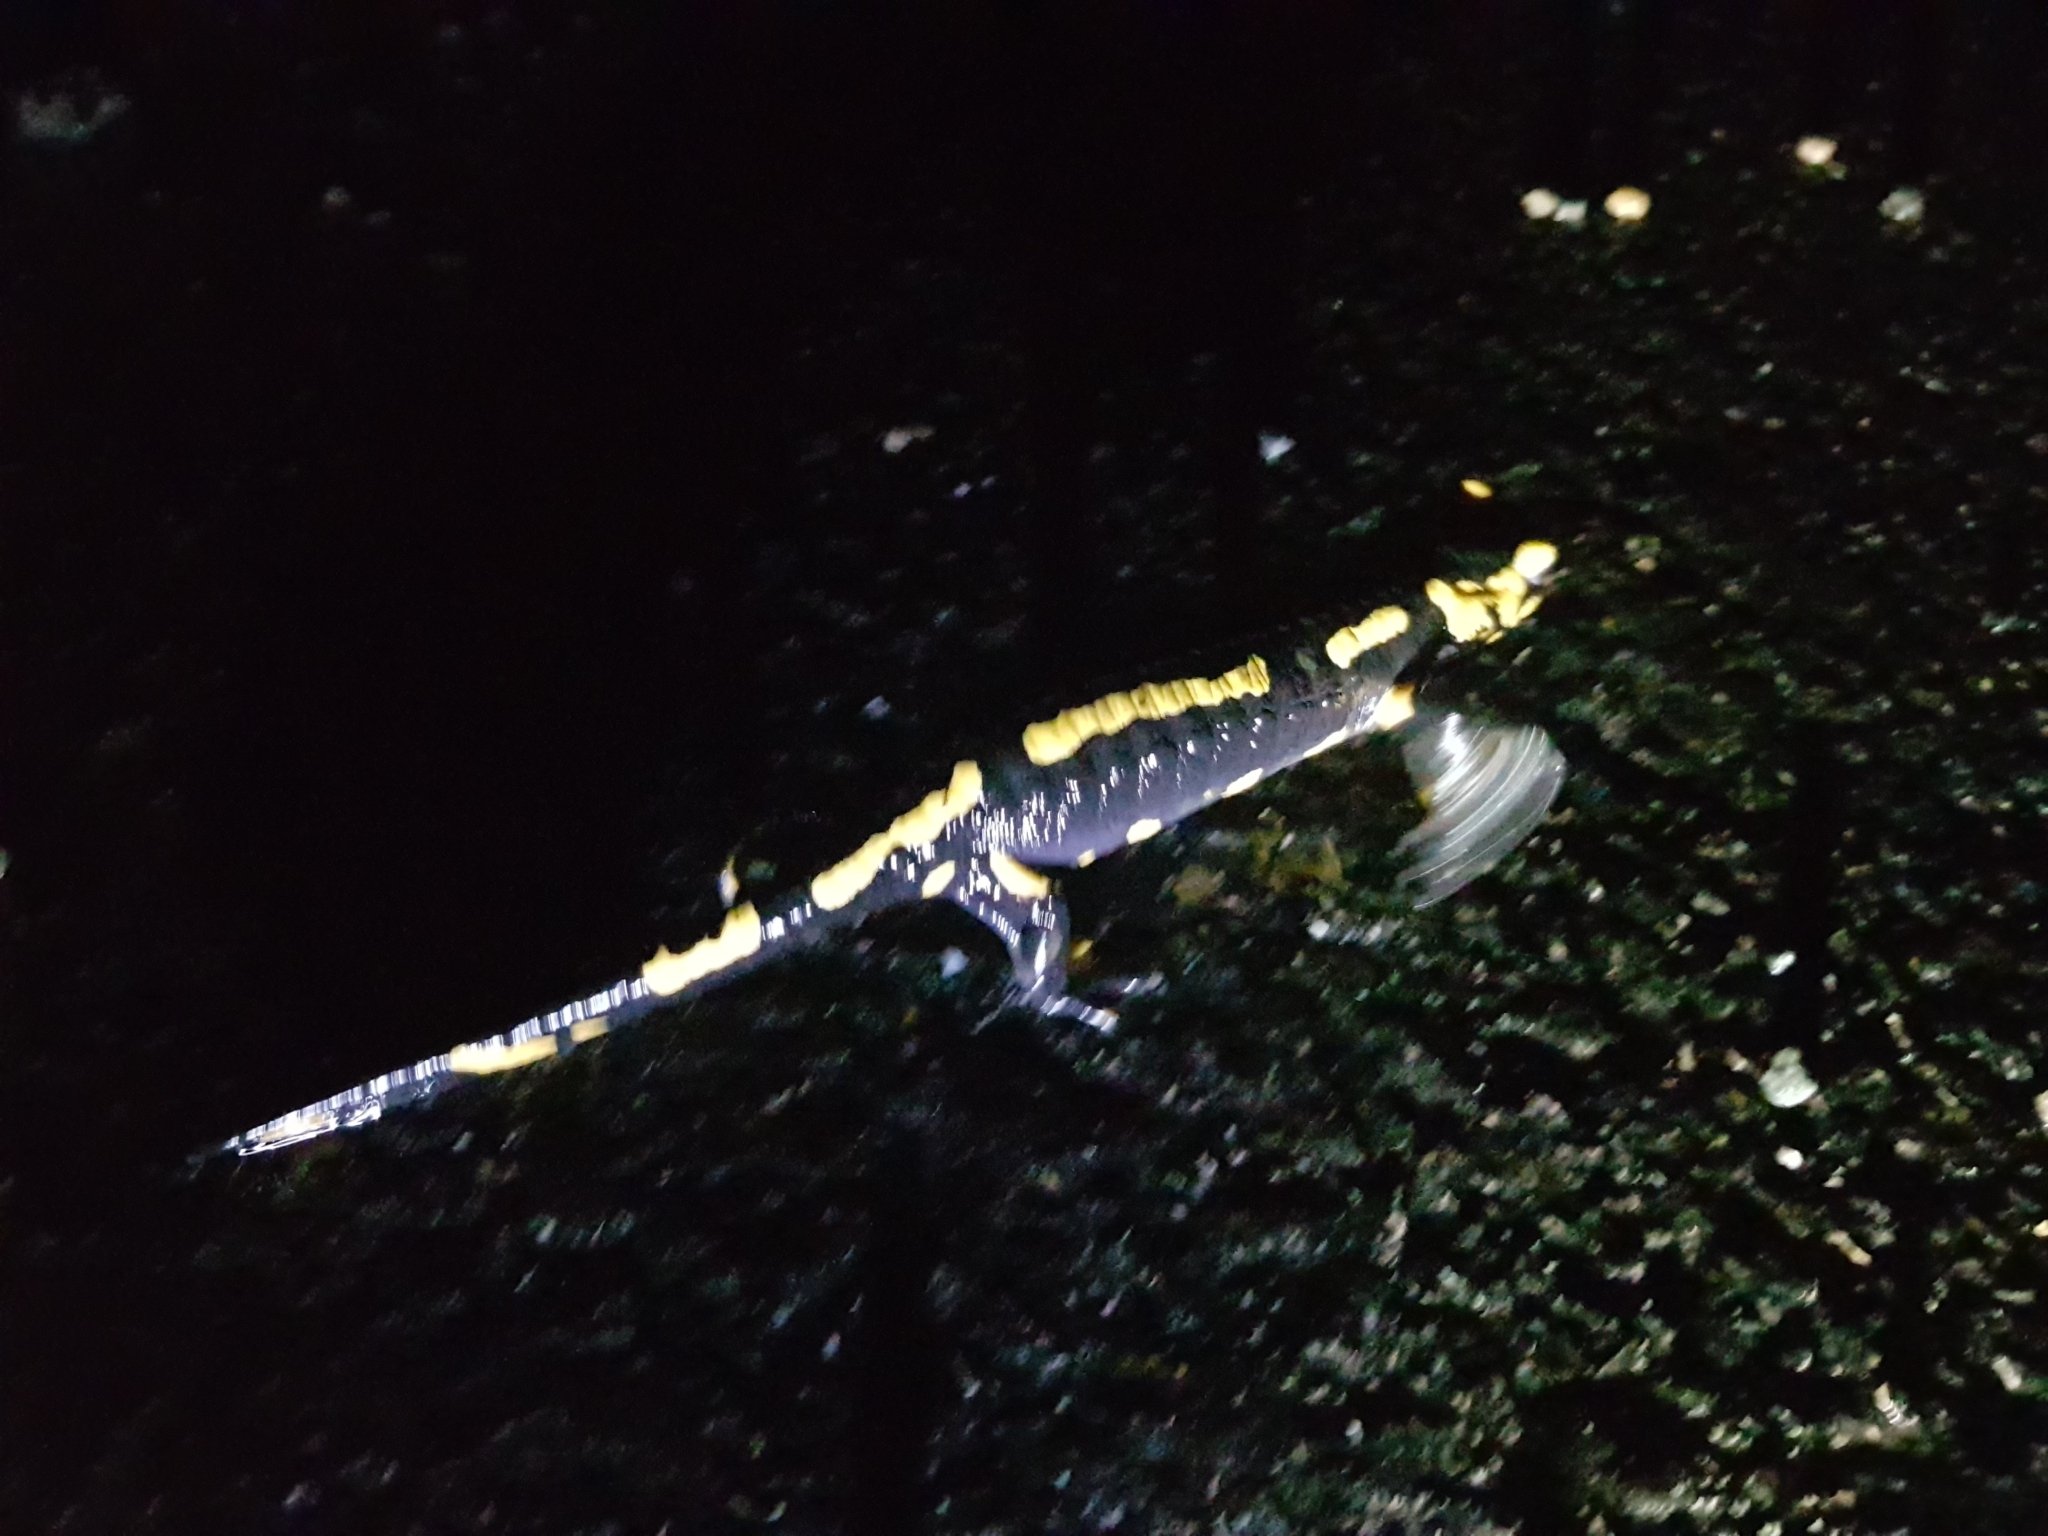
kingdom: Animalia
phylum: Chordata
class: Amphibia
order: Caudata
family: Salamandridae
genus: Salamandra
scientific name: Salamandra salamandra
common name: Fire salamander
